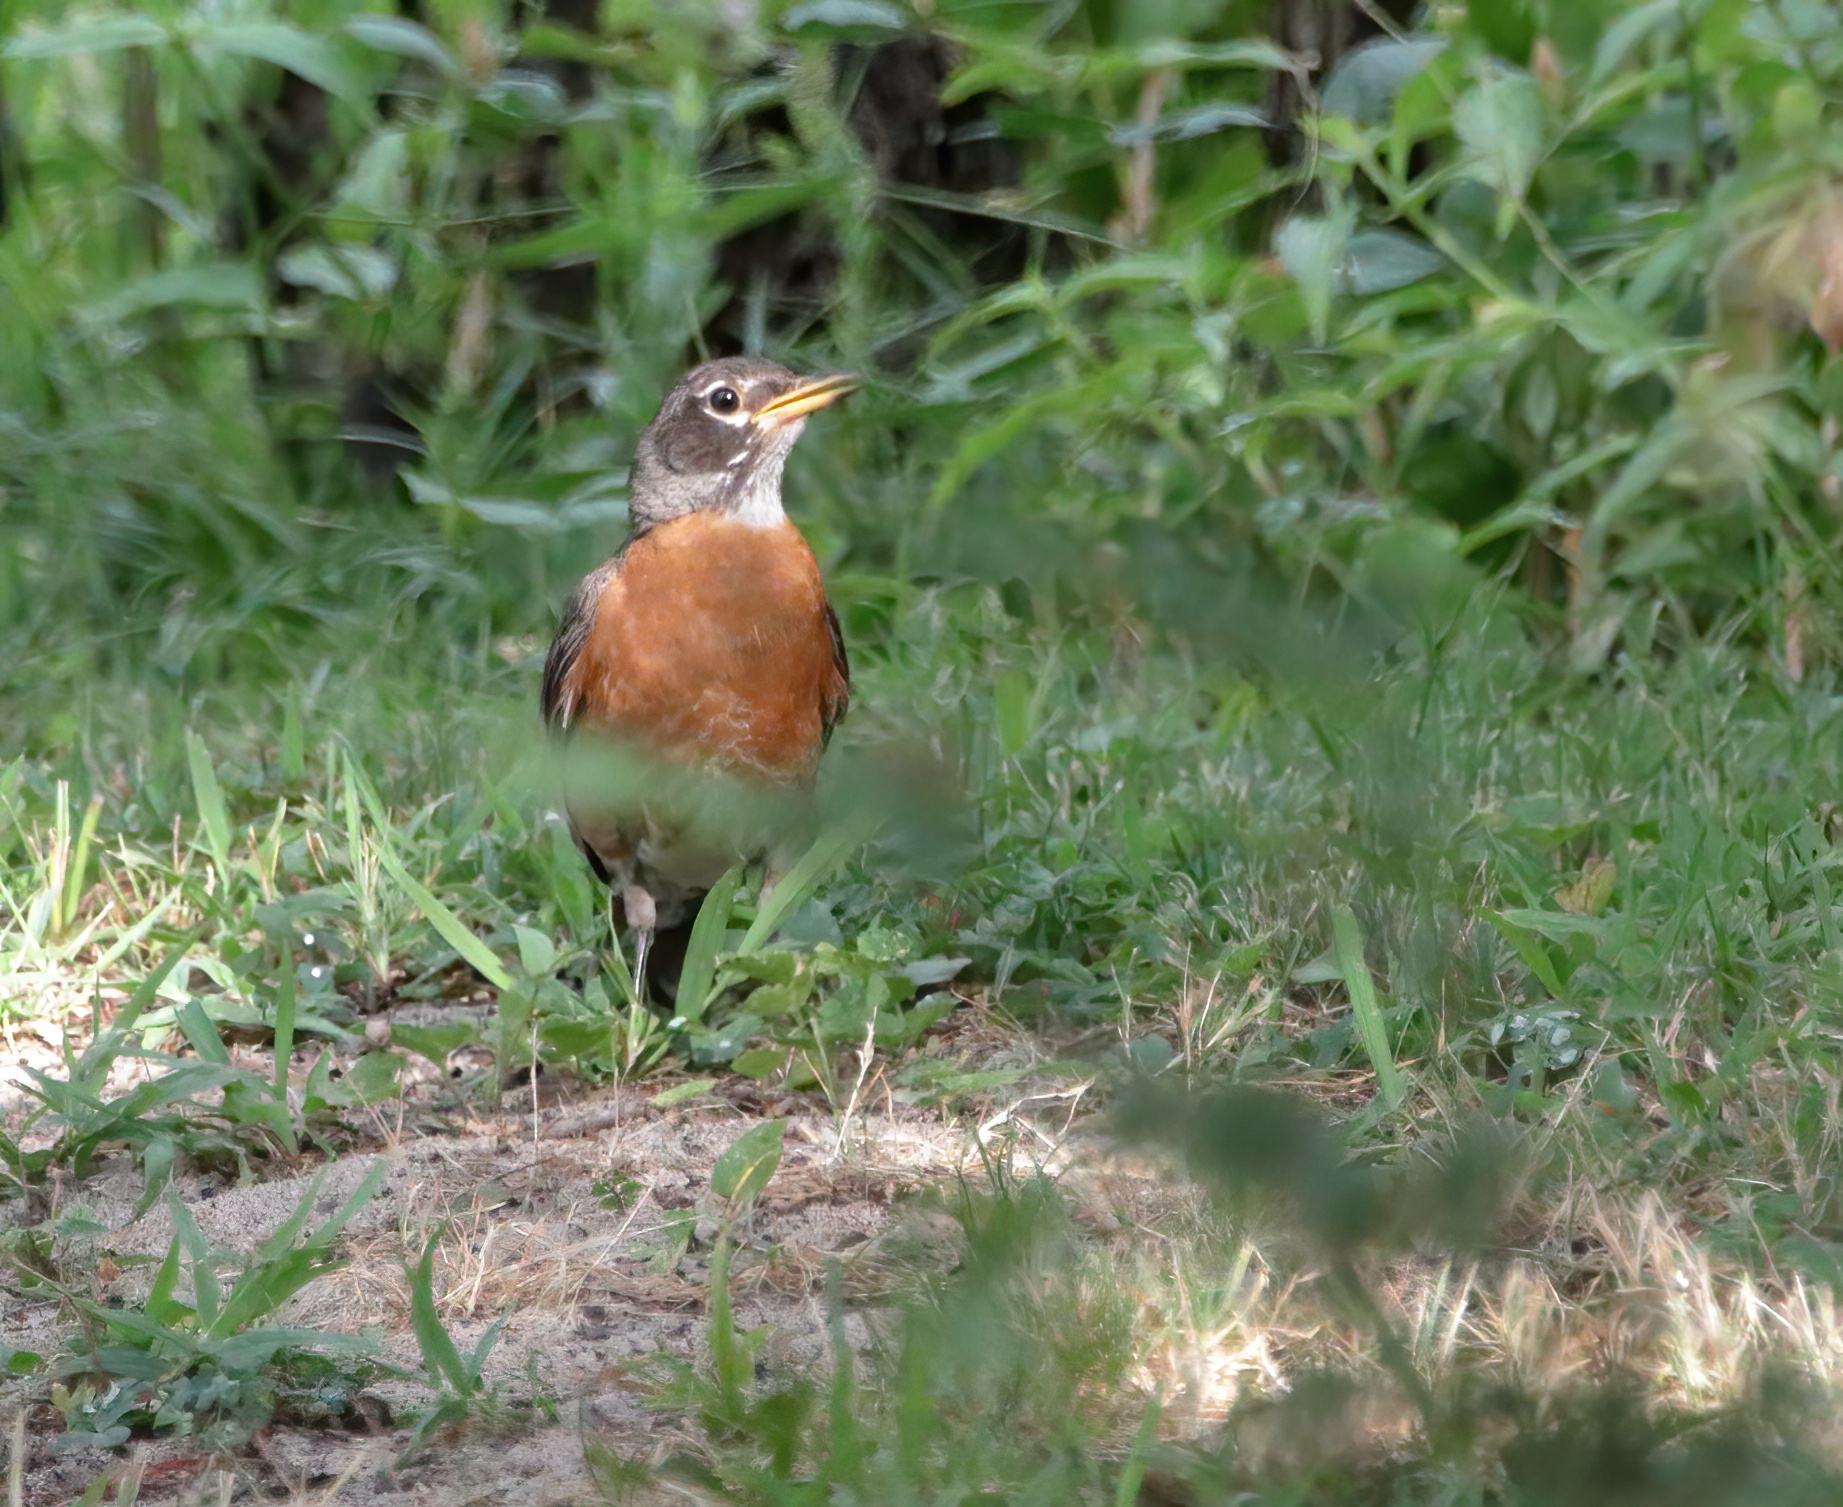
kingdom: Animalia
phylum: Chordata
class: Aves
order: Passeriformes
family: Turdidae
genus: Turdus
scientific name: Turdus migratorius
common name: American robin
